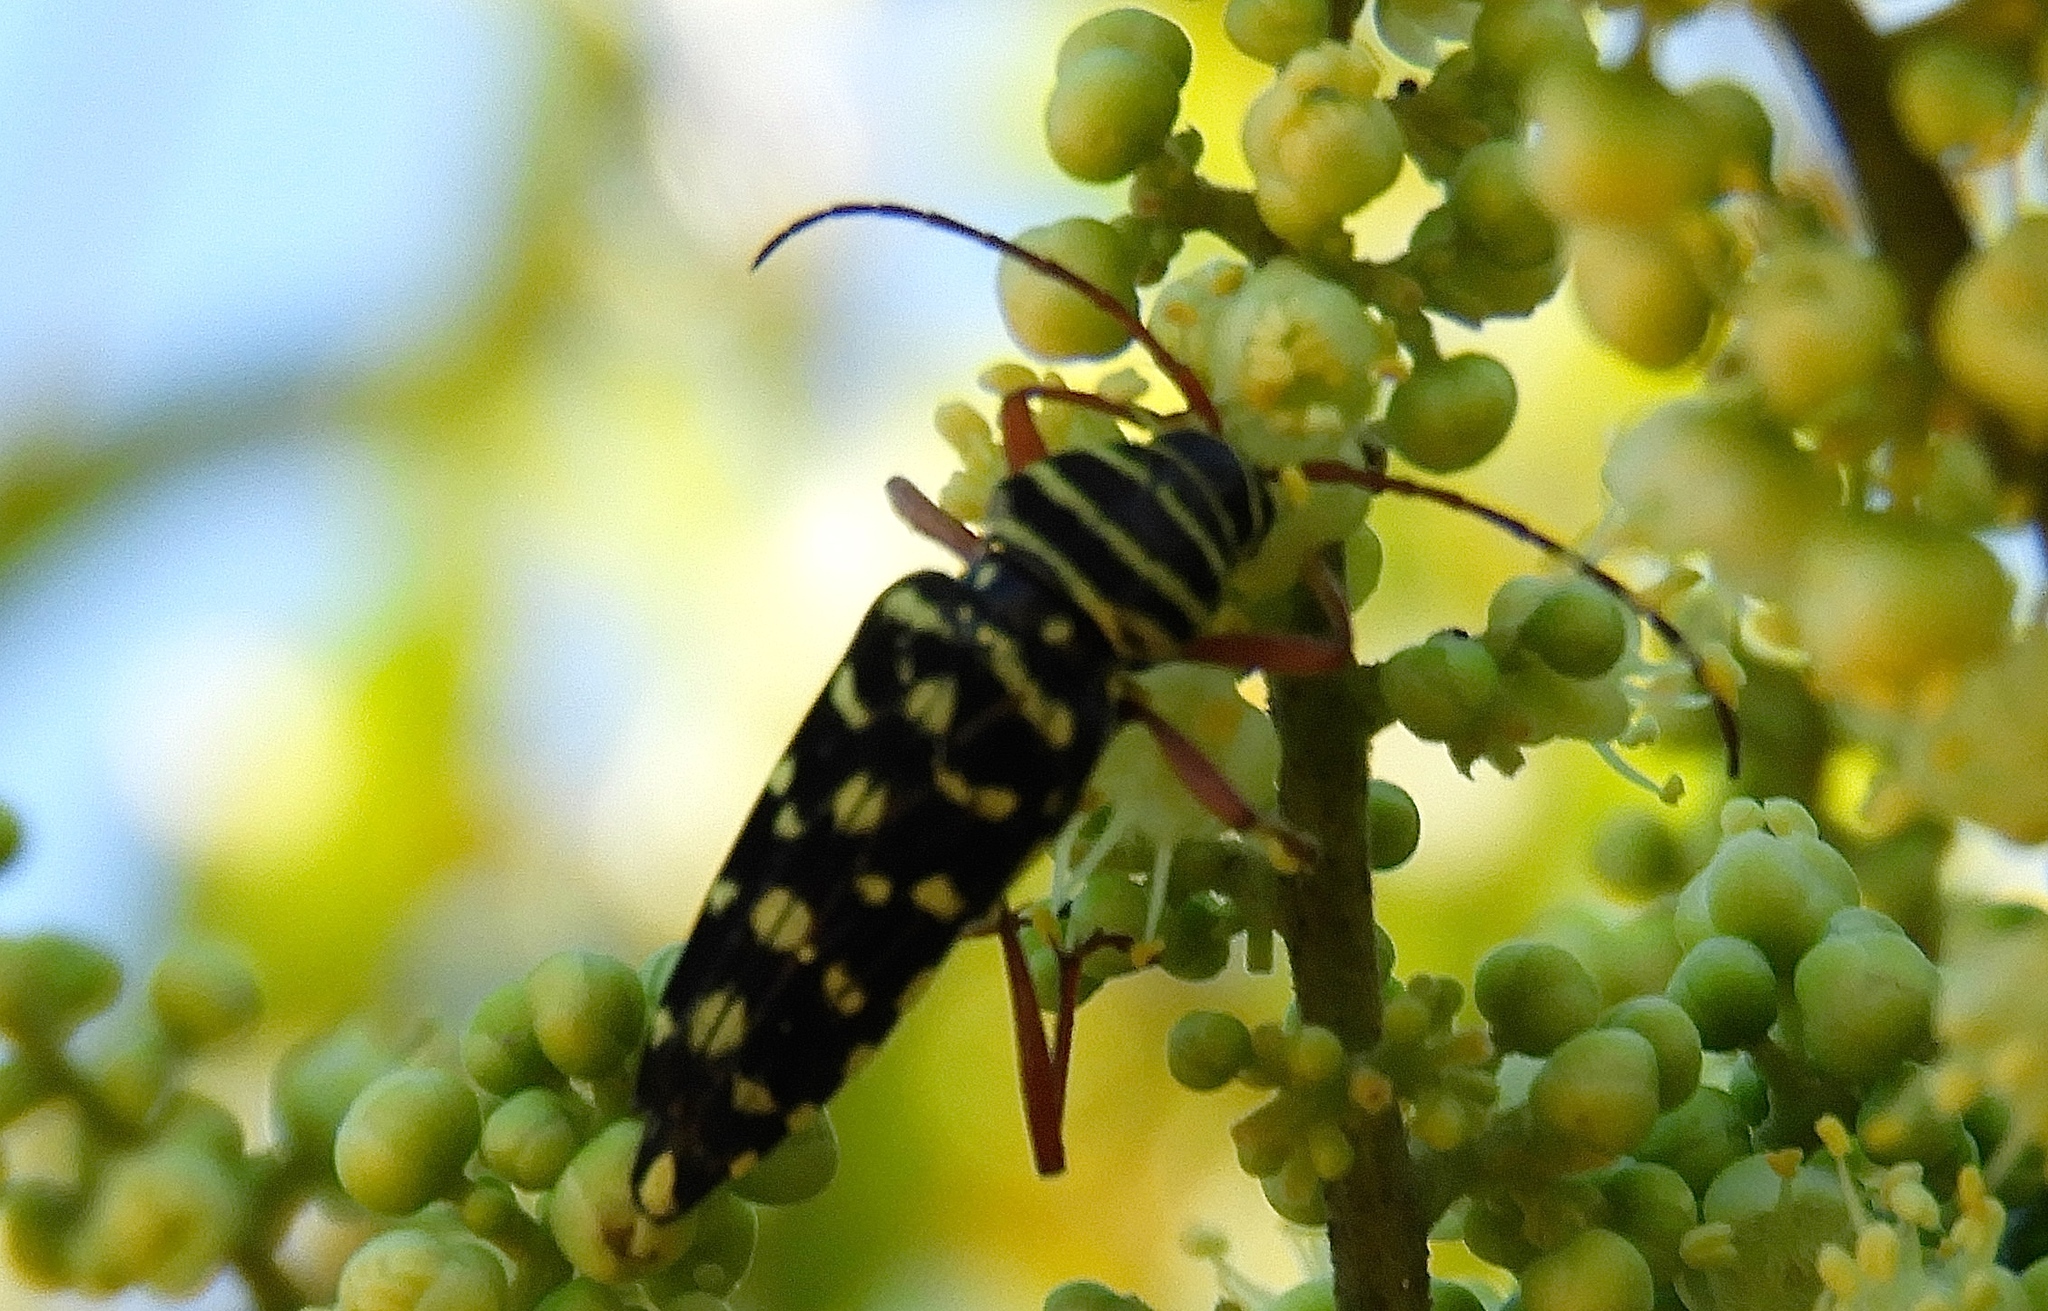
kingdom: Animalia
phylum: Arthropoda
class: Insecta
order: Coleoptera
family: Cerambycidae
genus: Placosternus
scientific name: Placosternus difficilis
